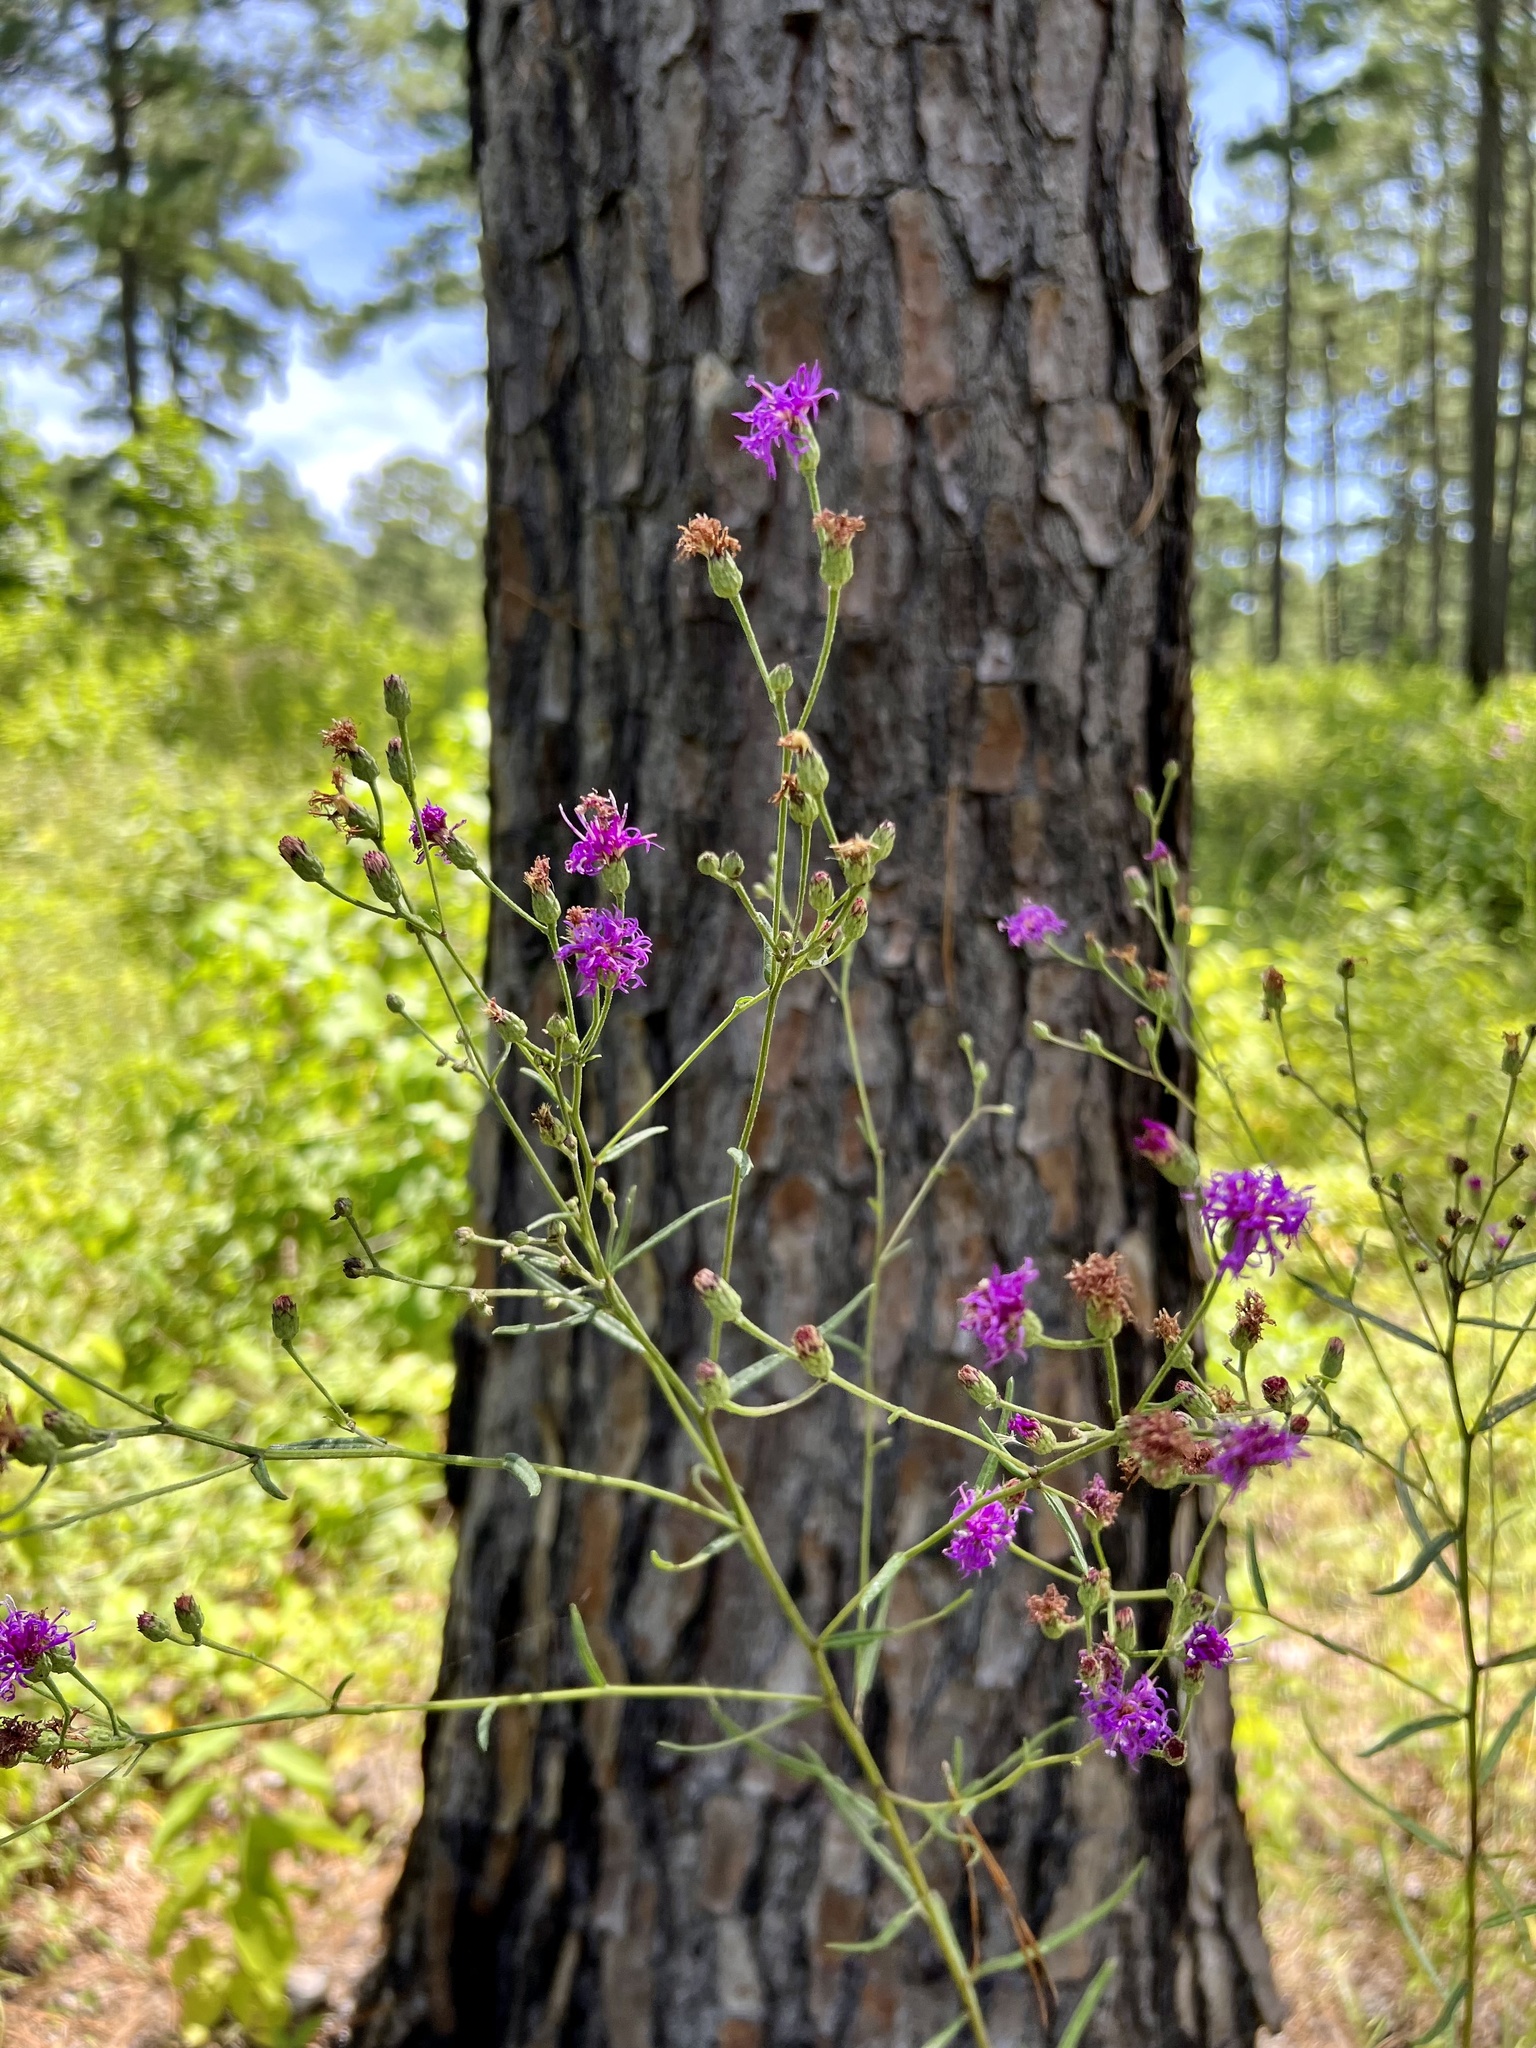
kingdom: Plantae
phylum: Tracheophyta
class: Magnoliopsida
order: Asterales
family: Asteraceae
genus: Vernonia
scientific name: Vernonia texana
